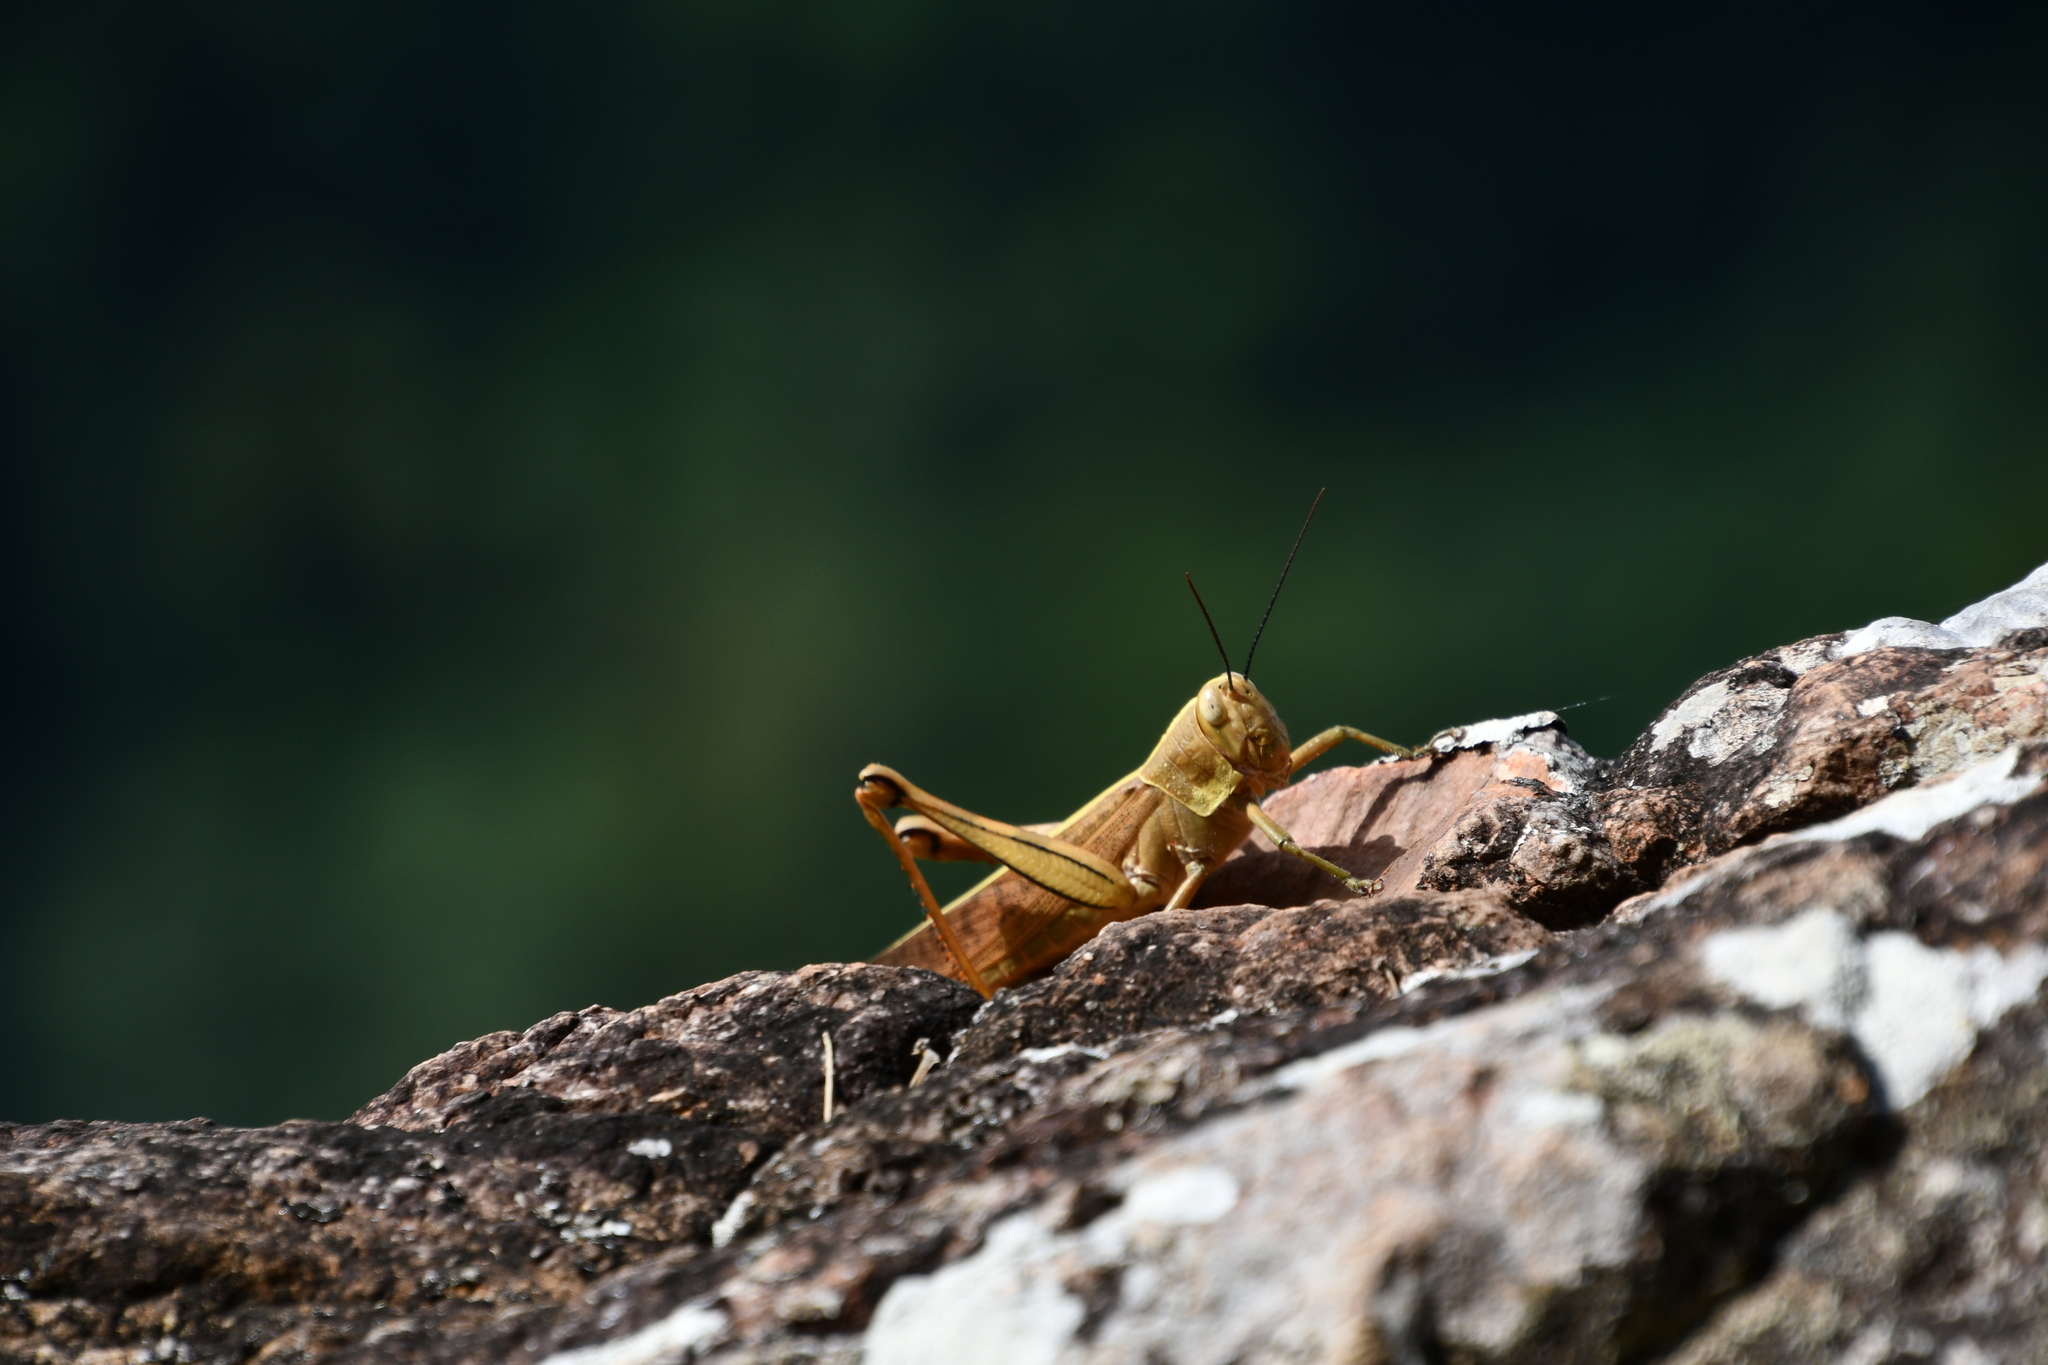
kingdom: Animalia
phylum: Arthropoda
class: Insecta
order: Orthoptera
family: Acrididae
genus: Valanga
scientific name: Valanga irregularis
